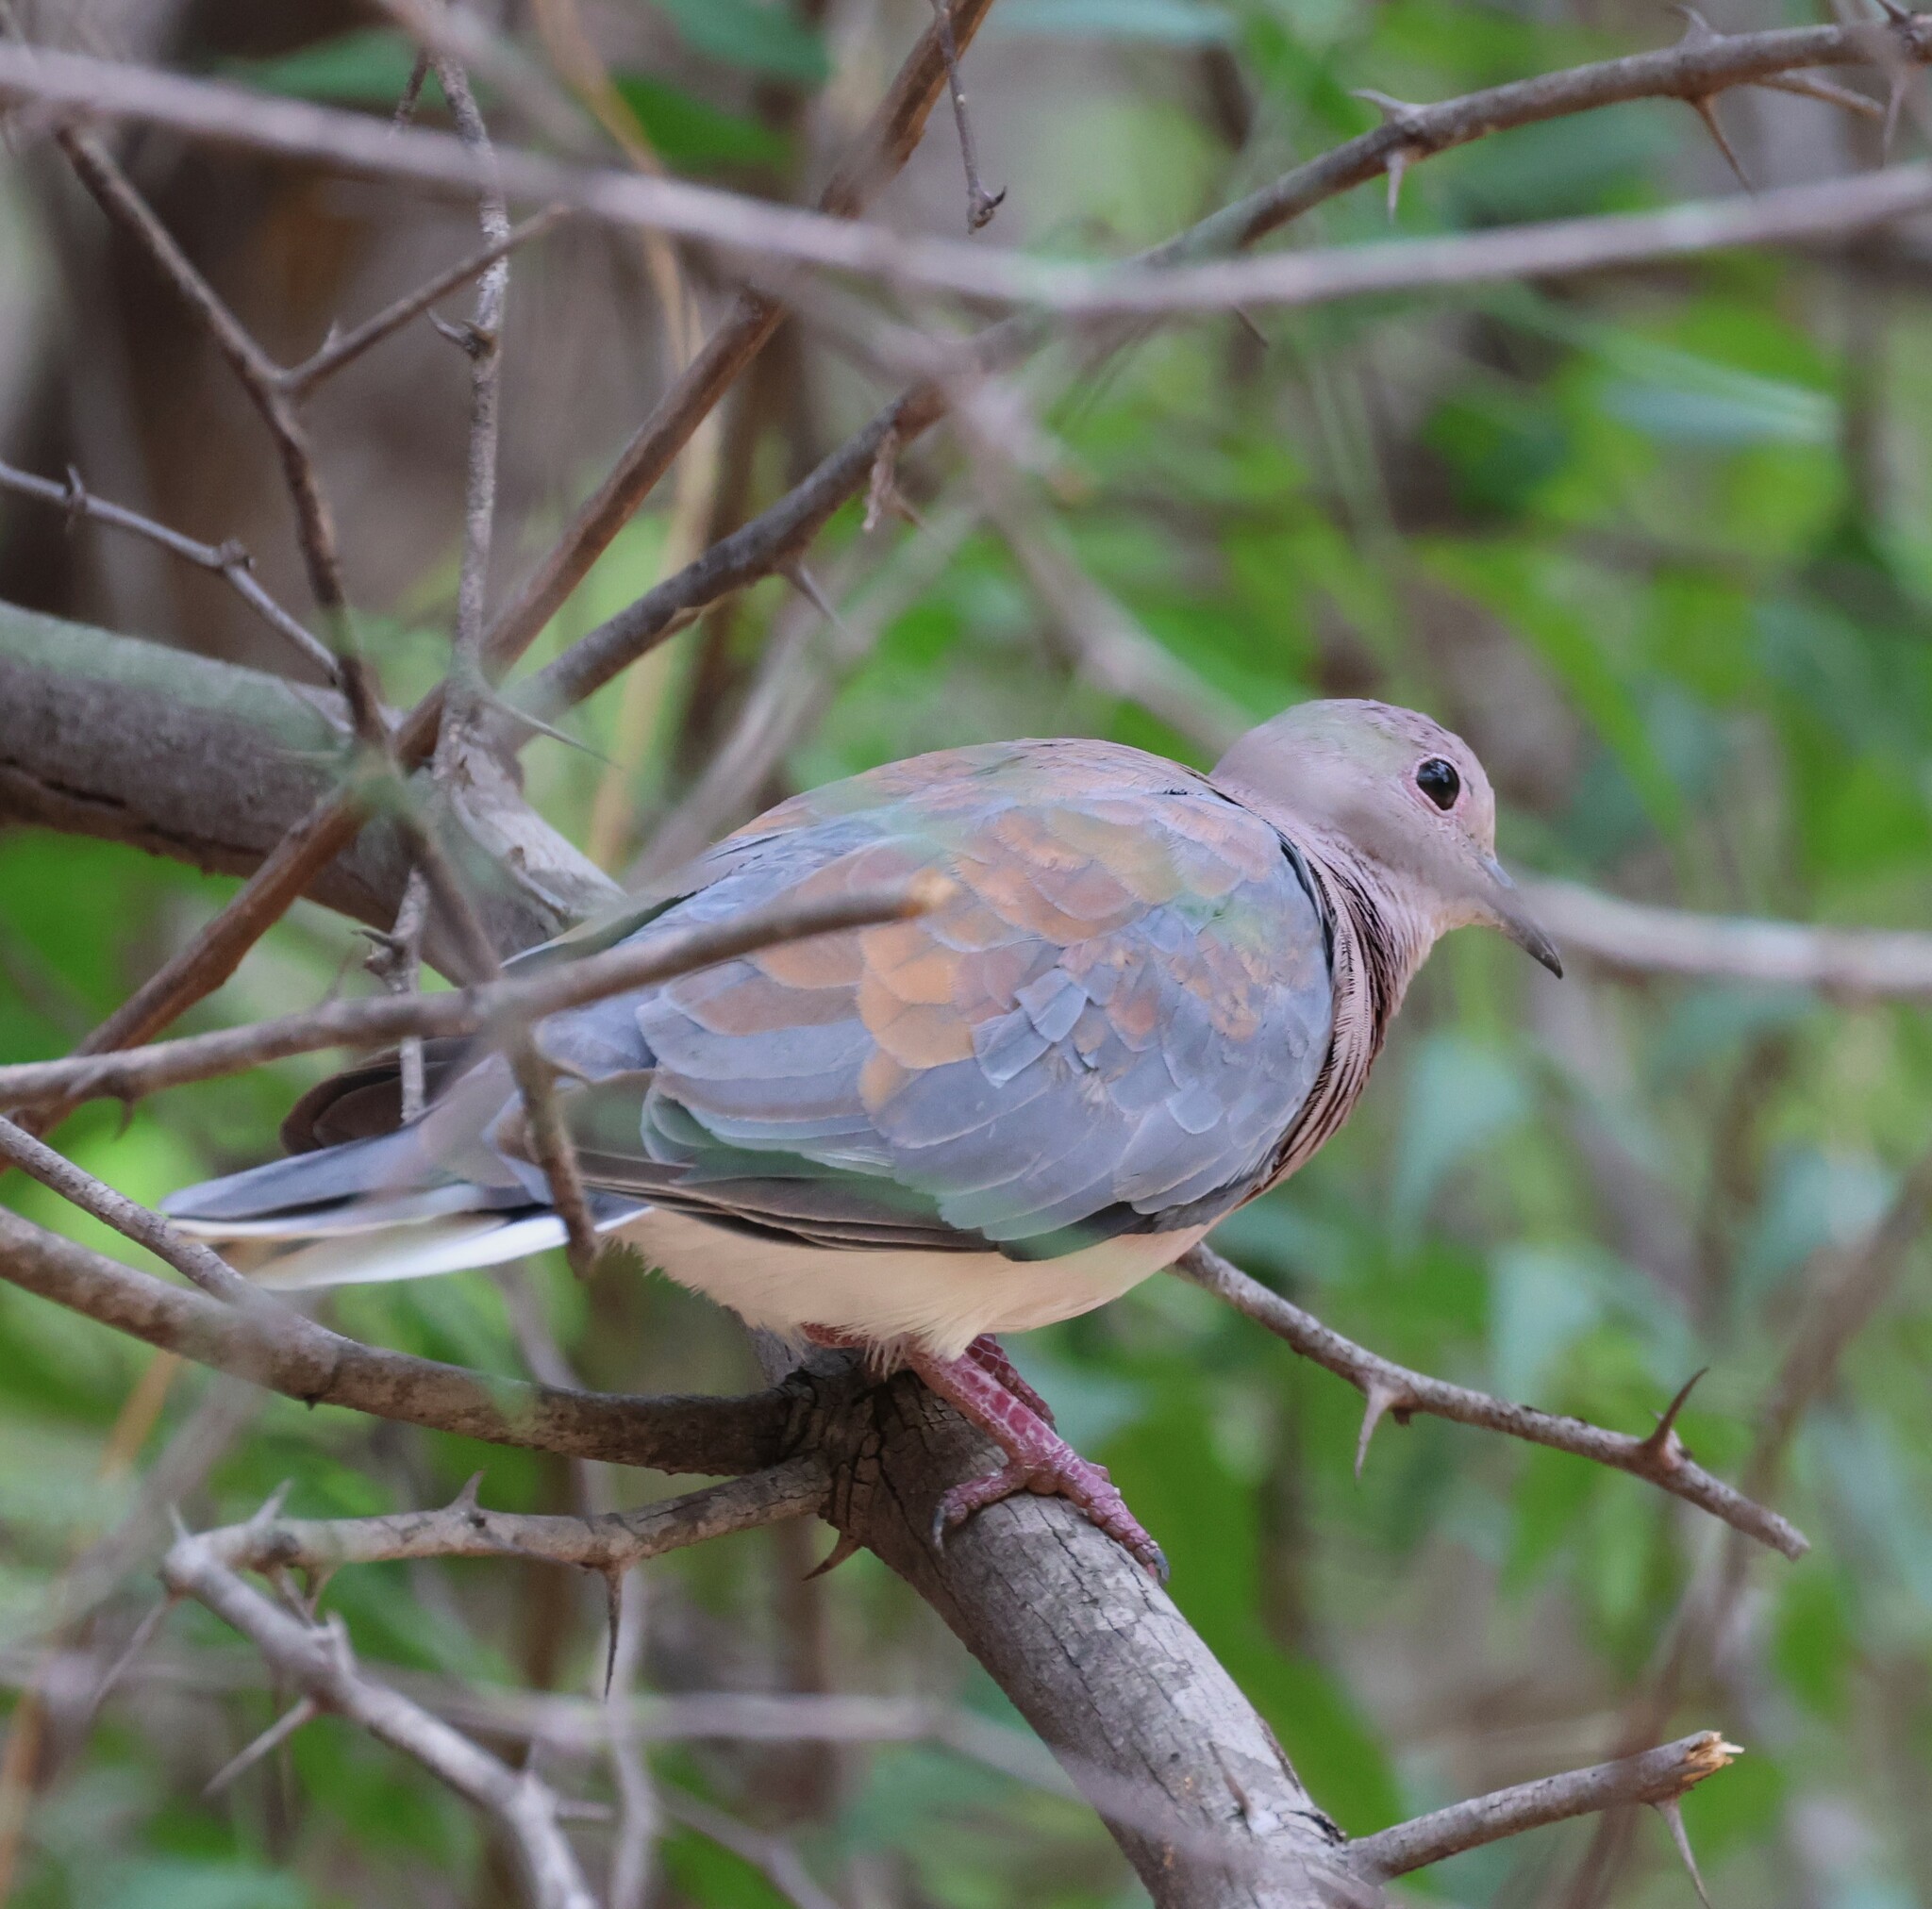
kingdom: Animalia
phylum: Chordata
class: Aves
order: Columbiformes
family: Columbidae
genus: Spilopelia
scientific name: Spilopelia senegalensis
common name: Laughing dove
